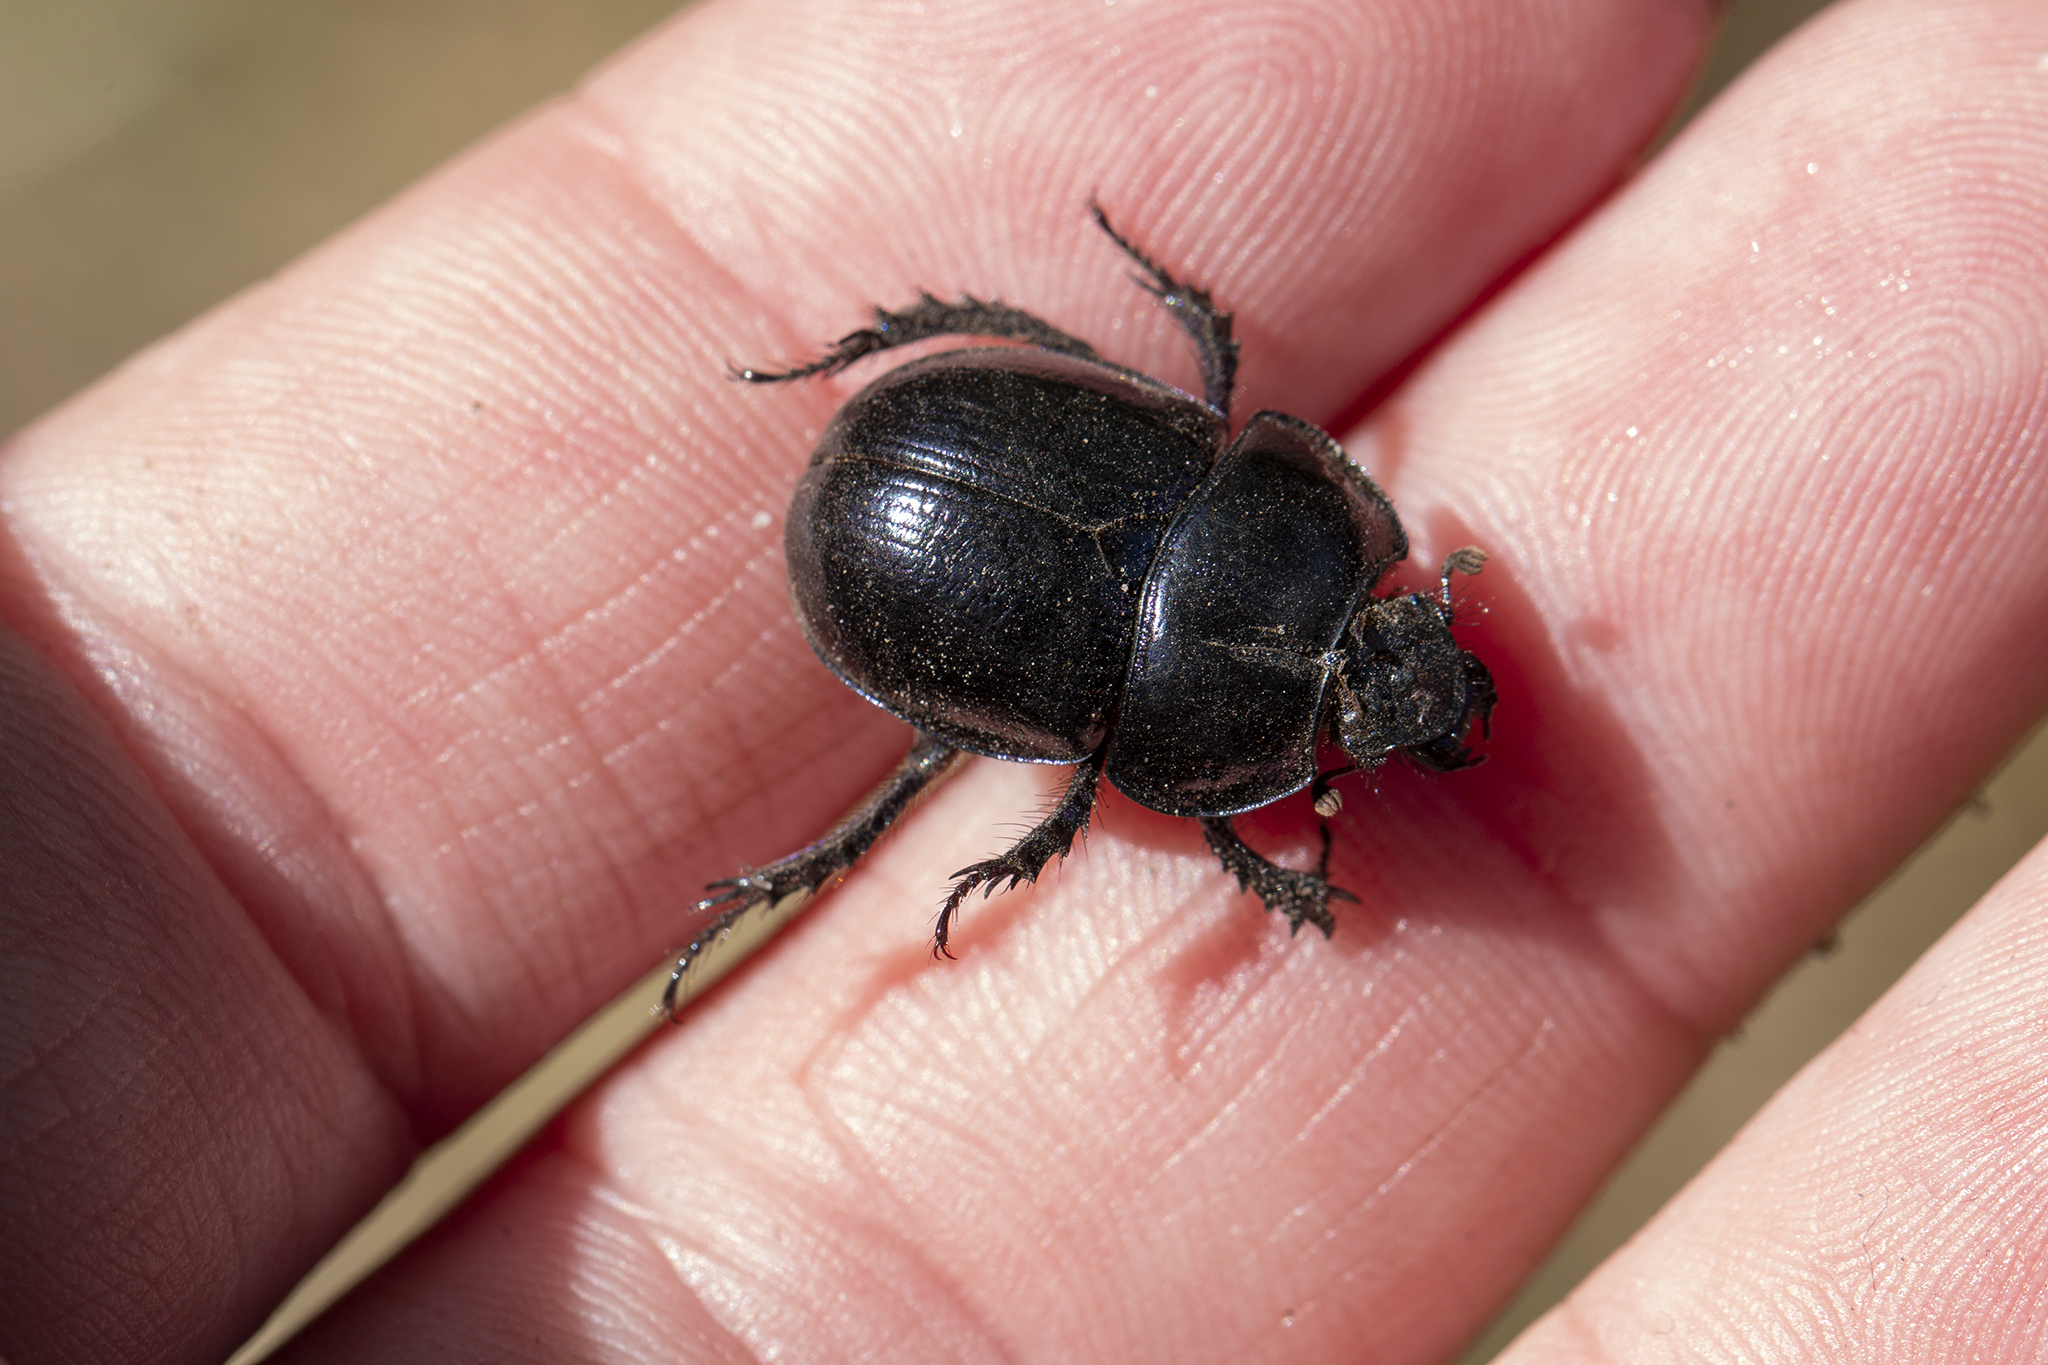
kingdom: Animalia
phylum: Arthropoda
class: Insecta
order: Coleoptera
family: Geotrupidae
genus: Anoplotrupes
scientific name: Anoplotrupes stercorosus
